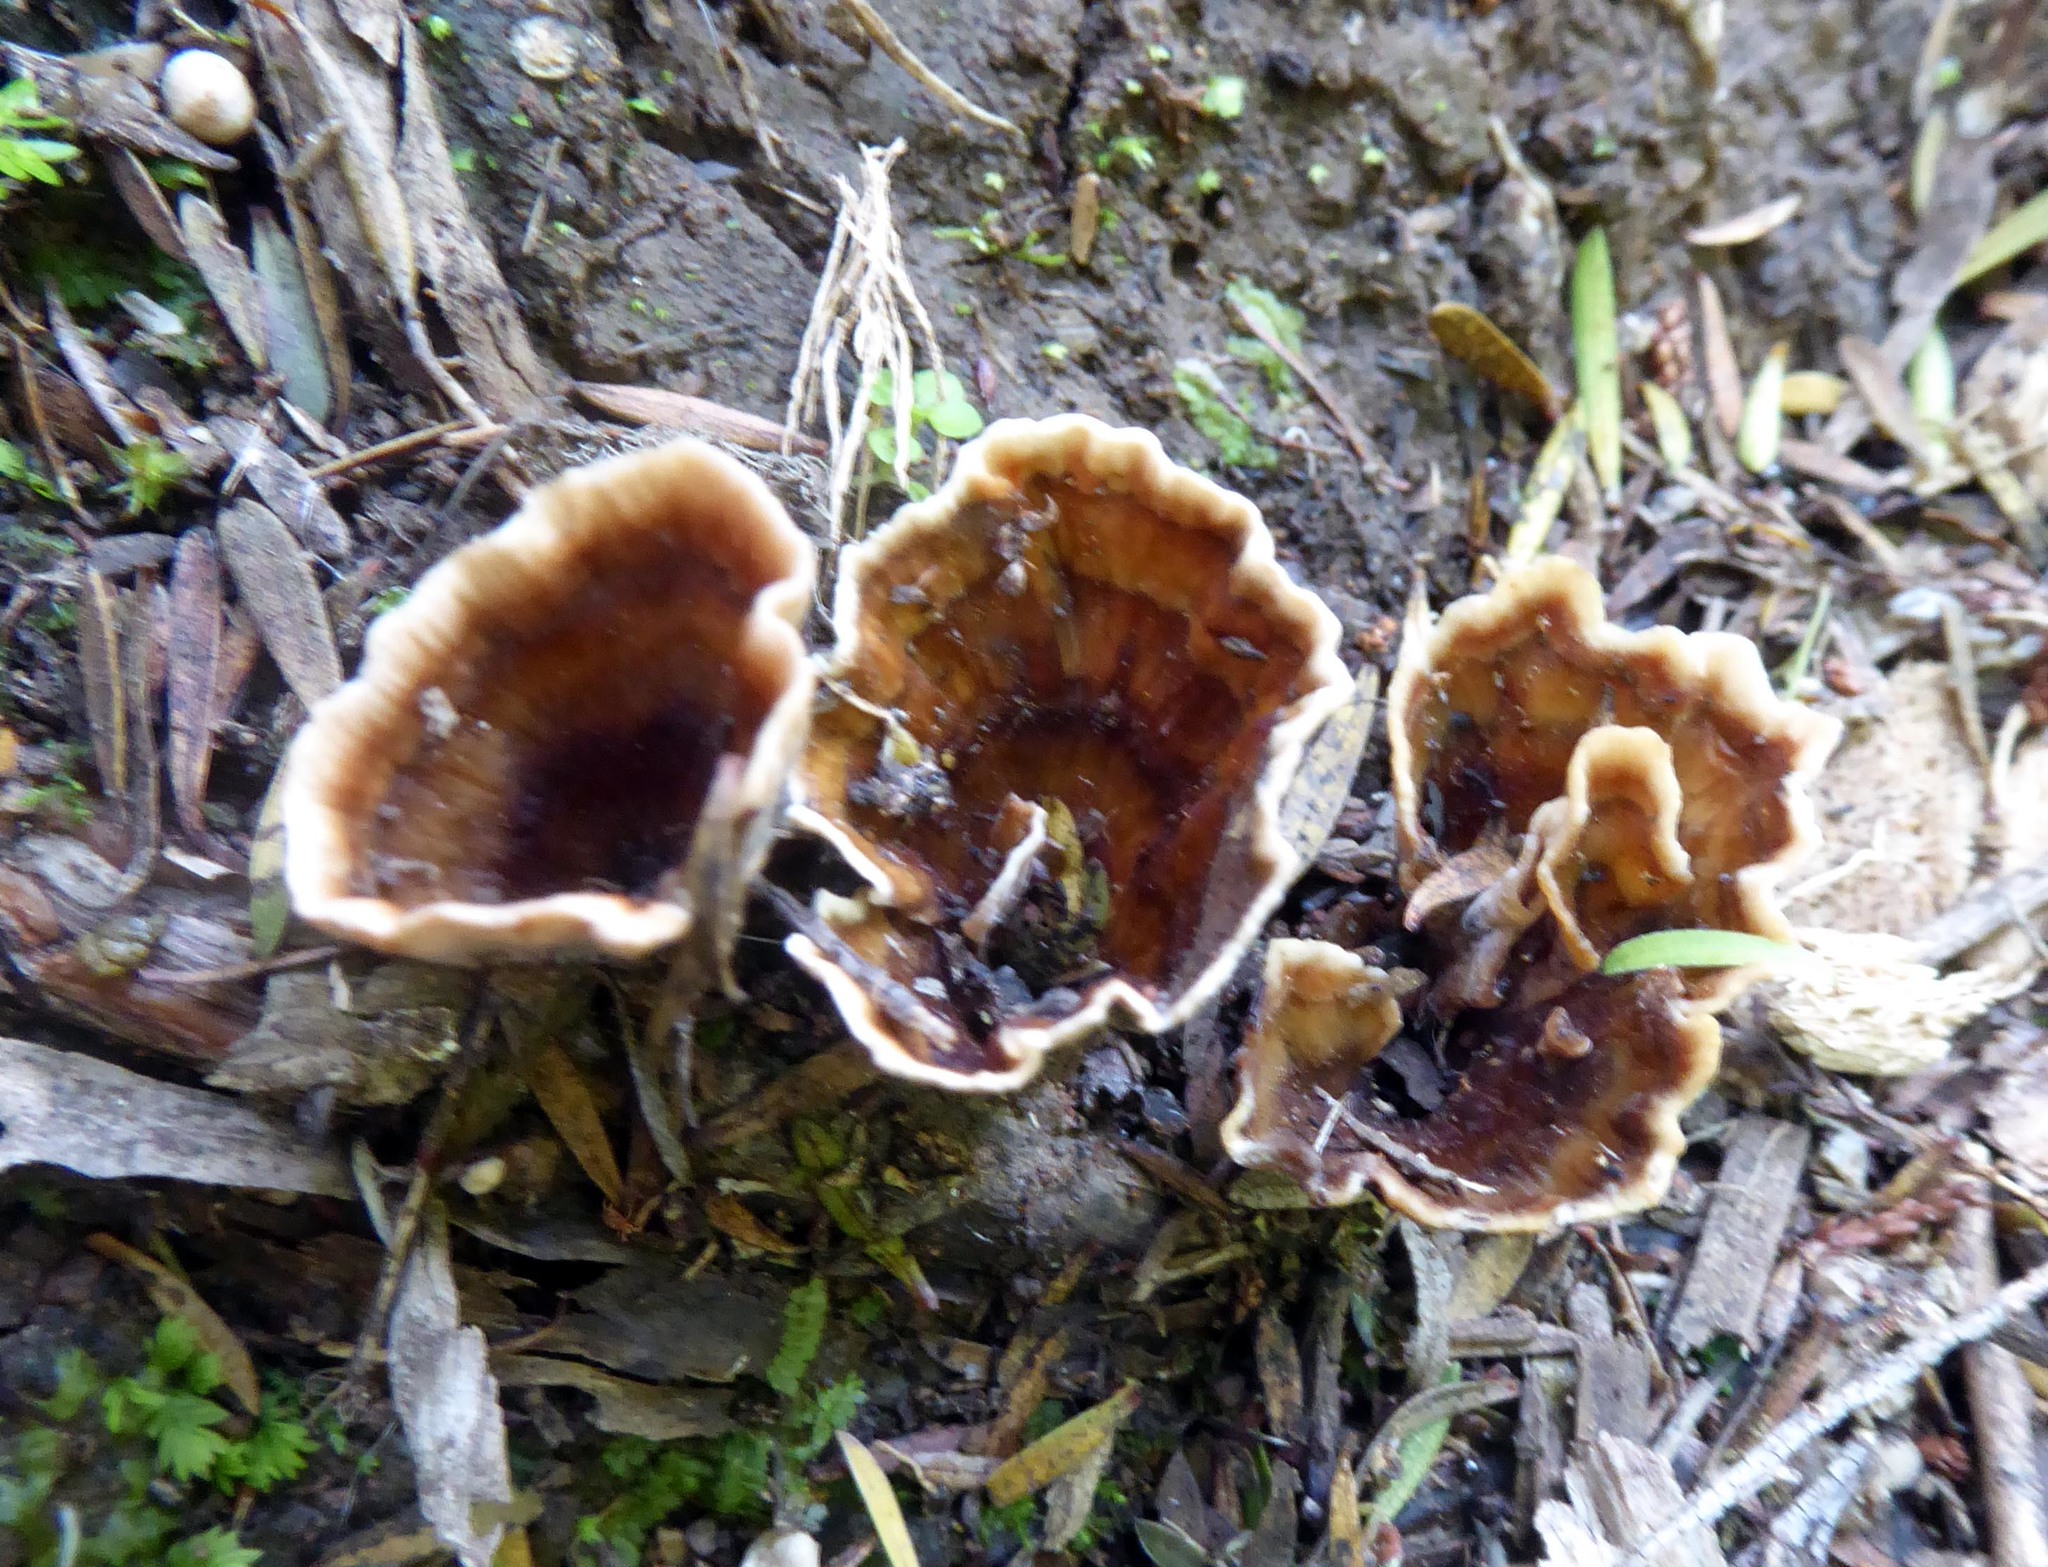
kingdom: Fungi
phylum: Basidiomycota
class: Agaricomycetes
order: Polyporales
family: Podoscyphaceae
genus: Podoscypha
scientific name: Podoscypha petalodes
